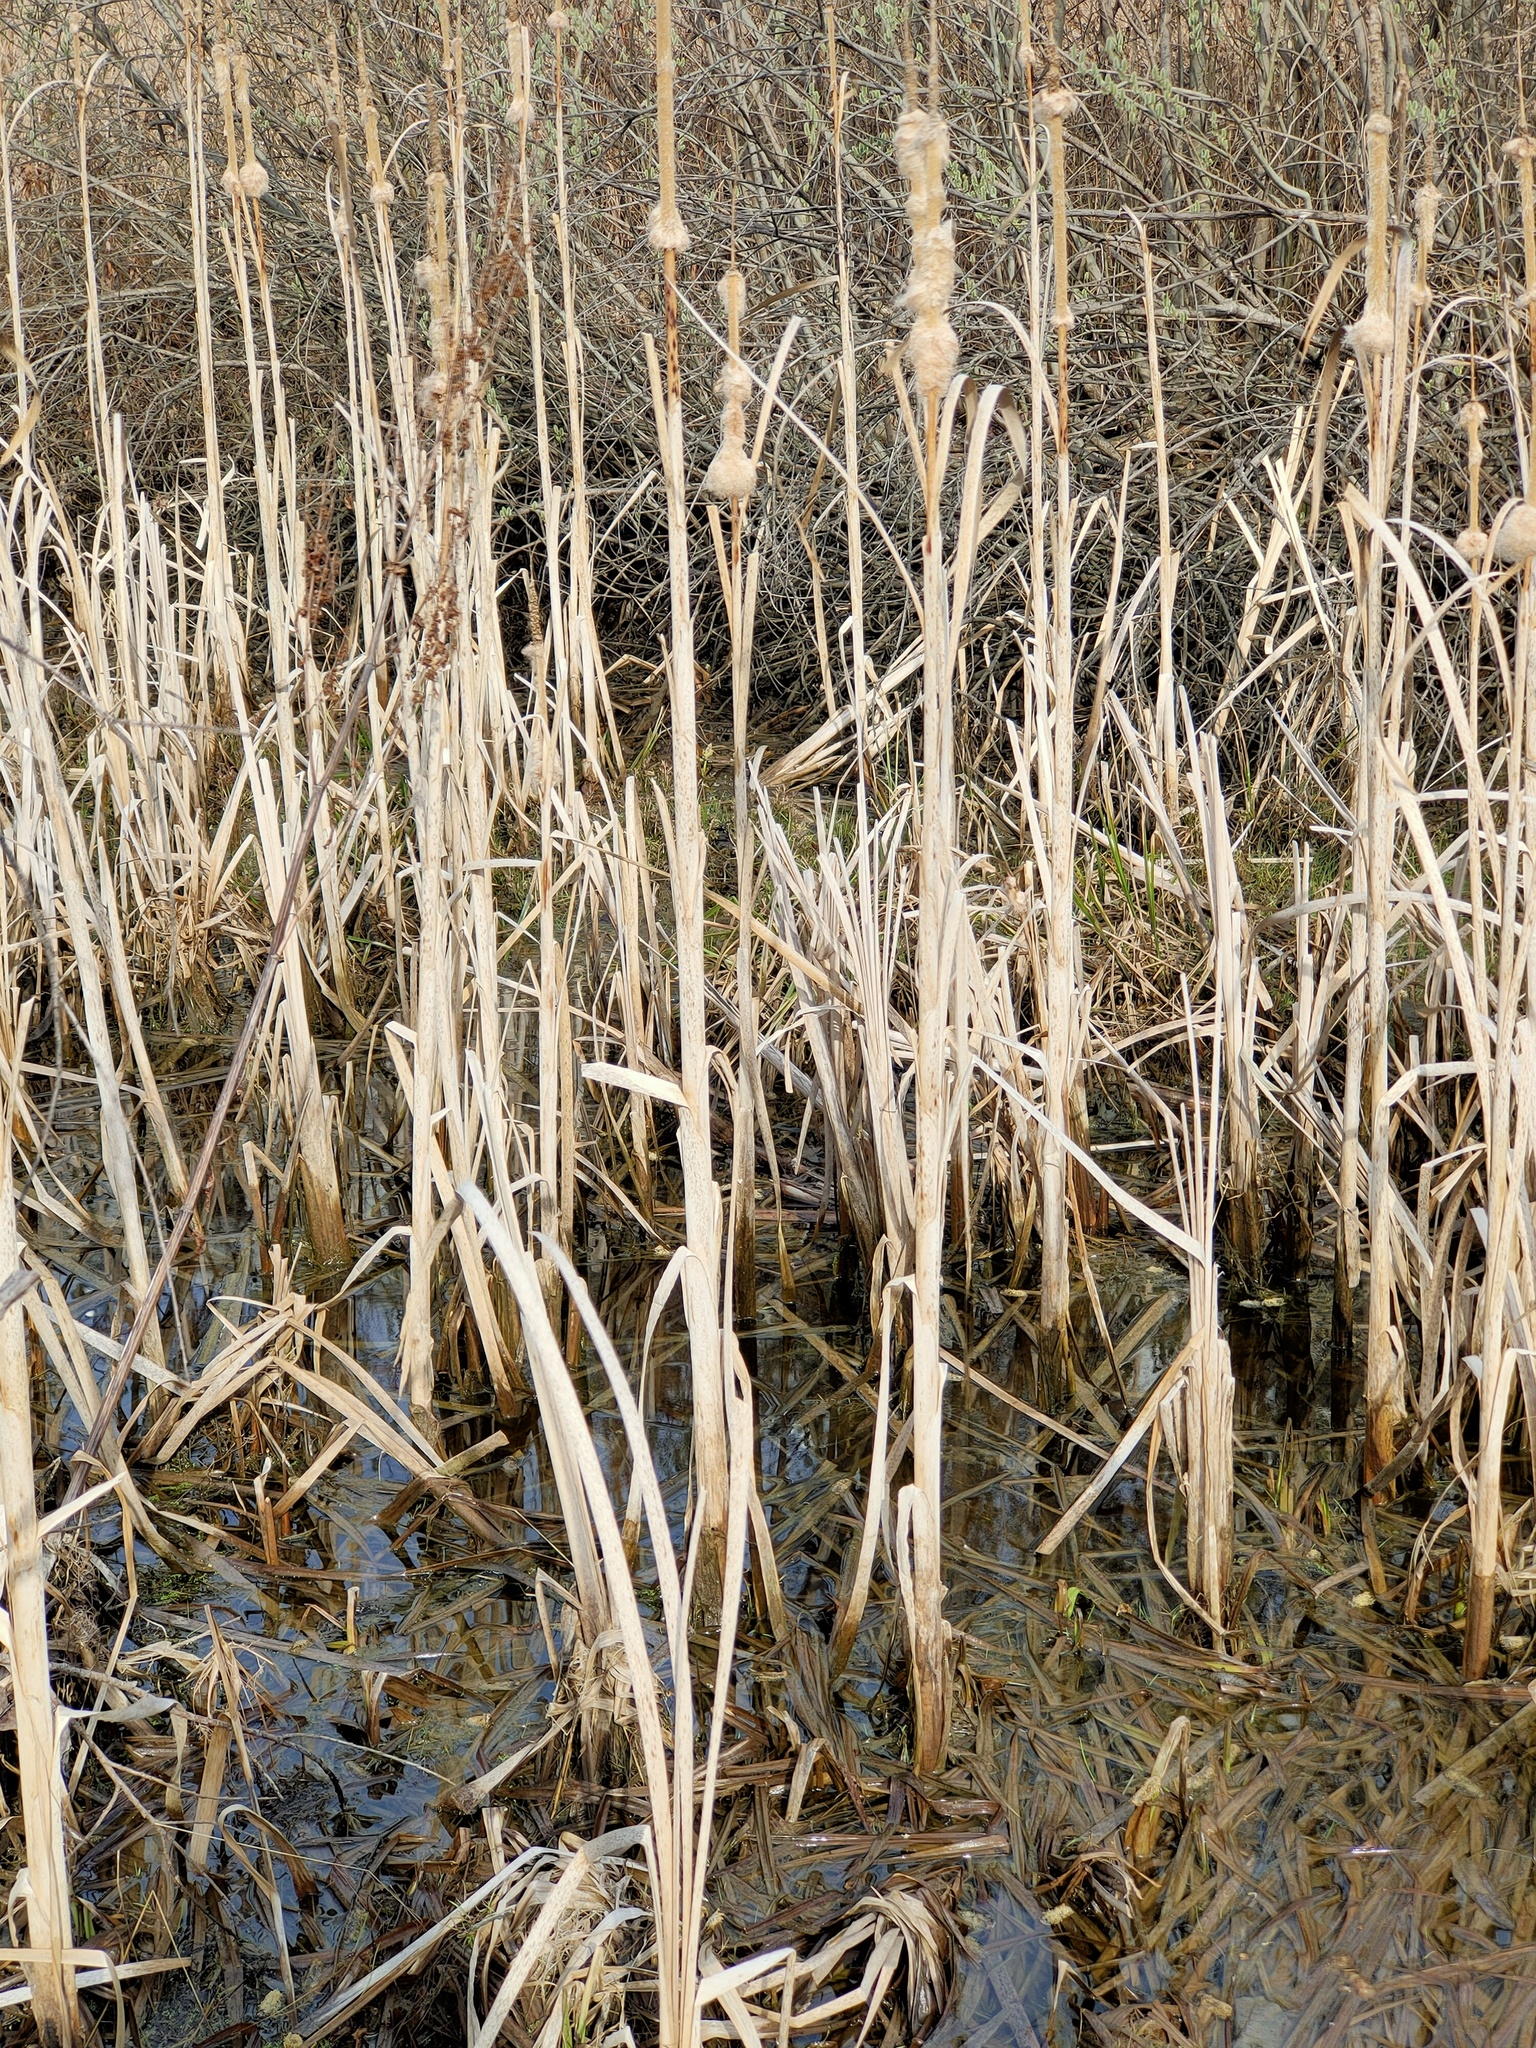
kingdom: Plantae
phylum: Tracheophyta
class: Liliopsida
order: Poales
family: Typhaceae
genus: Typha
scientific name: Typha latifolia
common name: Broadleaf cattail
